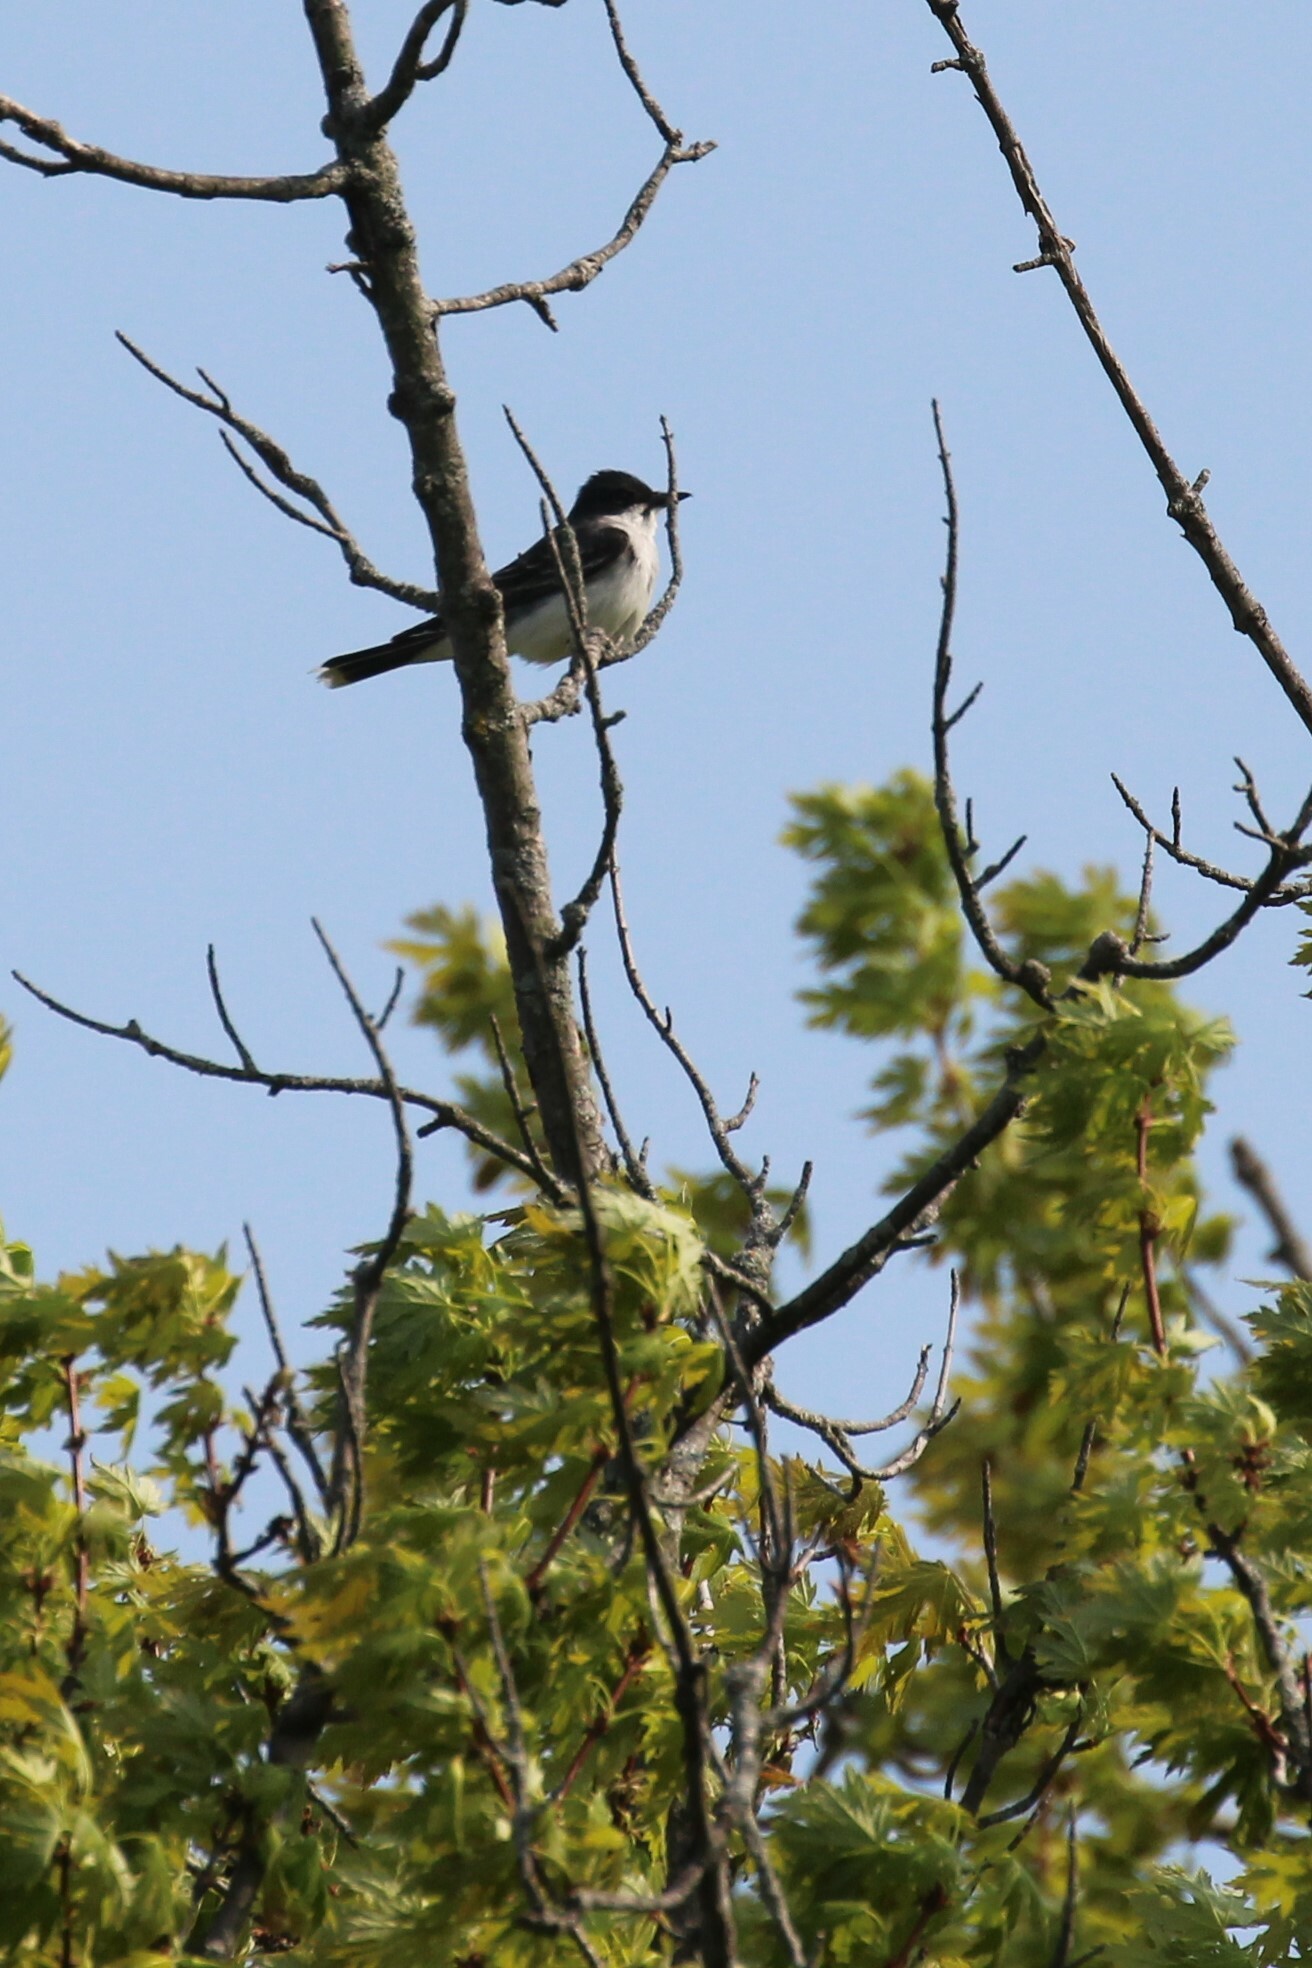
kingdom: Animalia
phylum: Chordata
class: Aves
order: Passeriformes
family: Tyrannidae
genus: Tyrannus
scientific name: Tyrannus tyrannus
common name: Eastern kingbird
